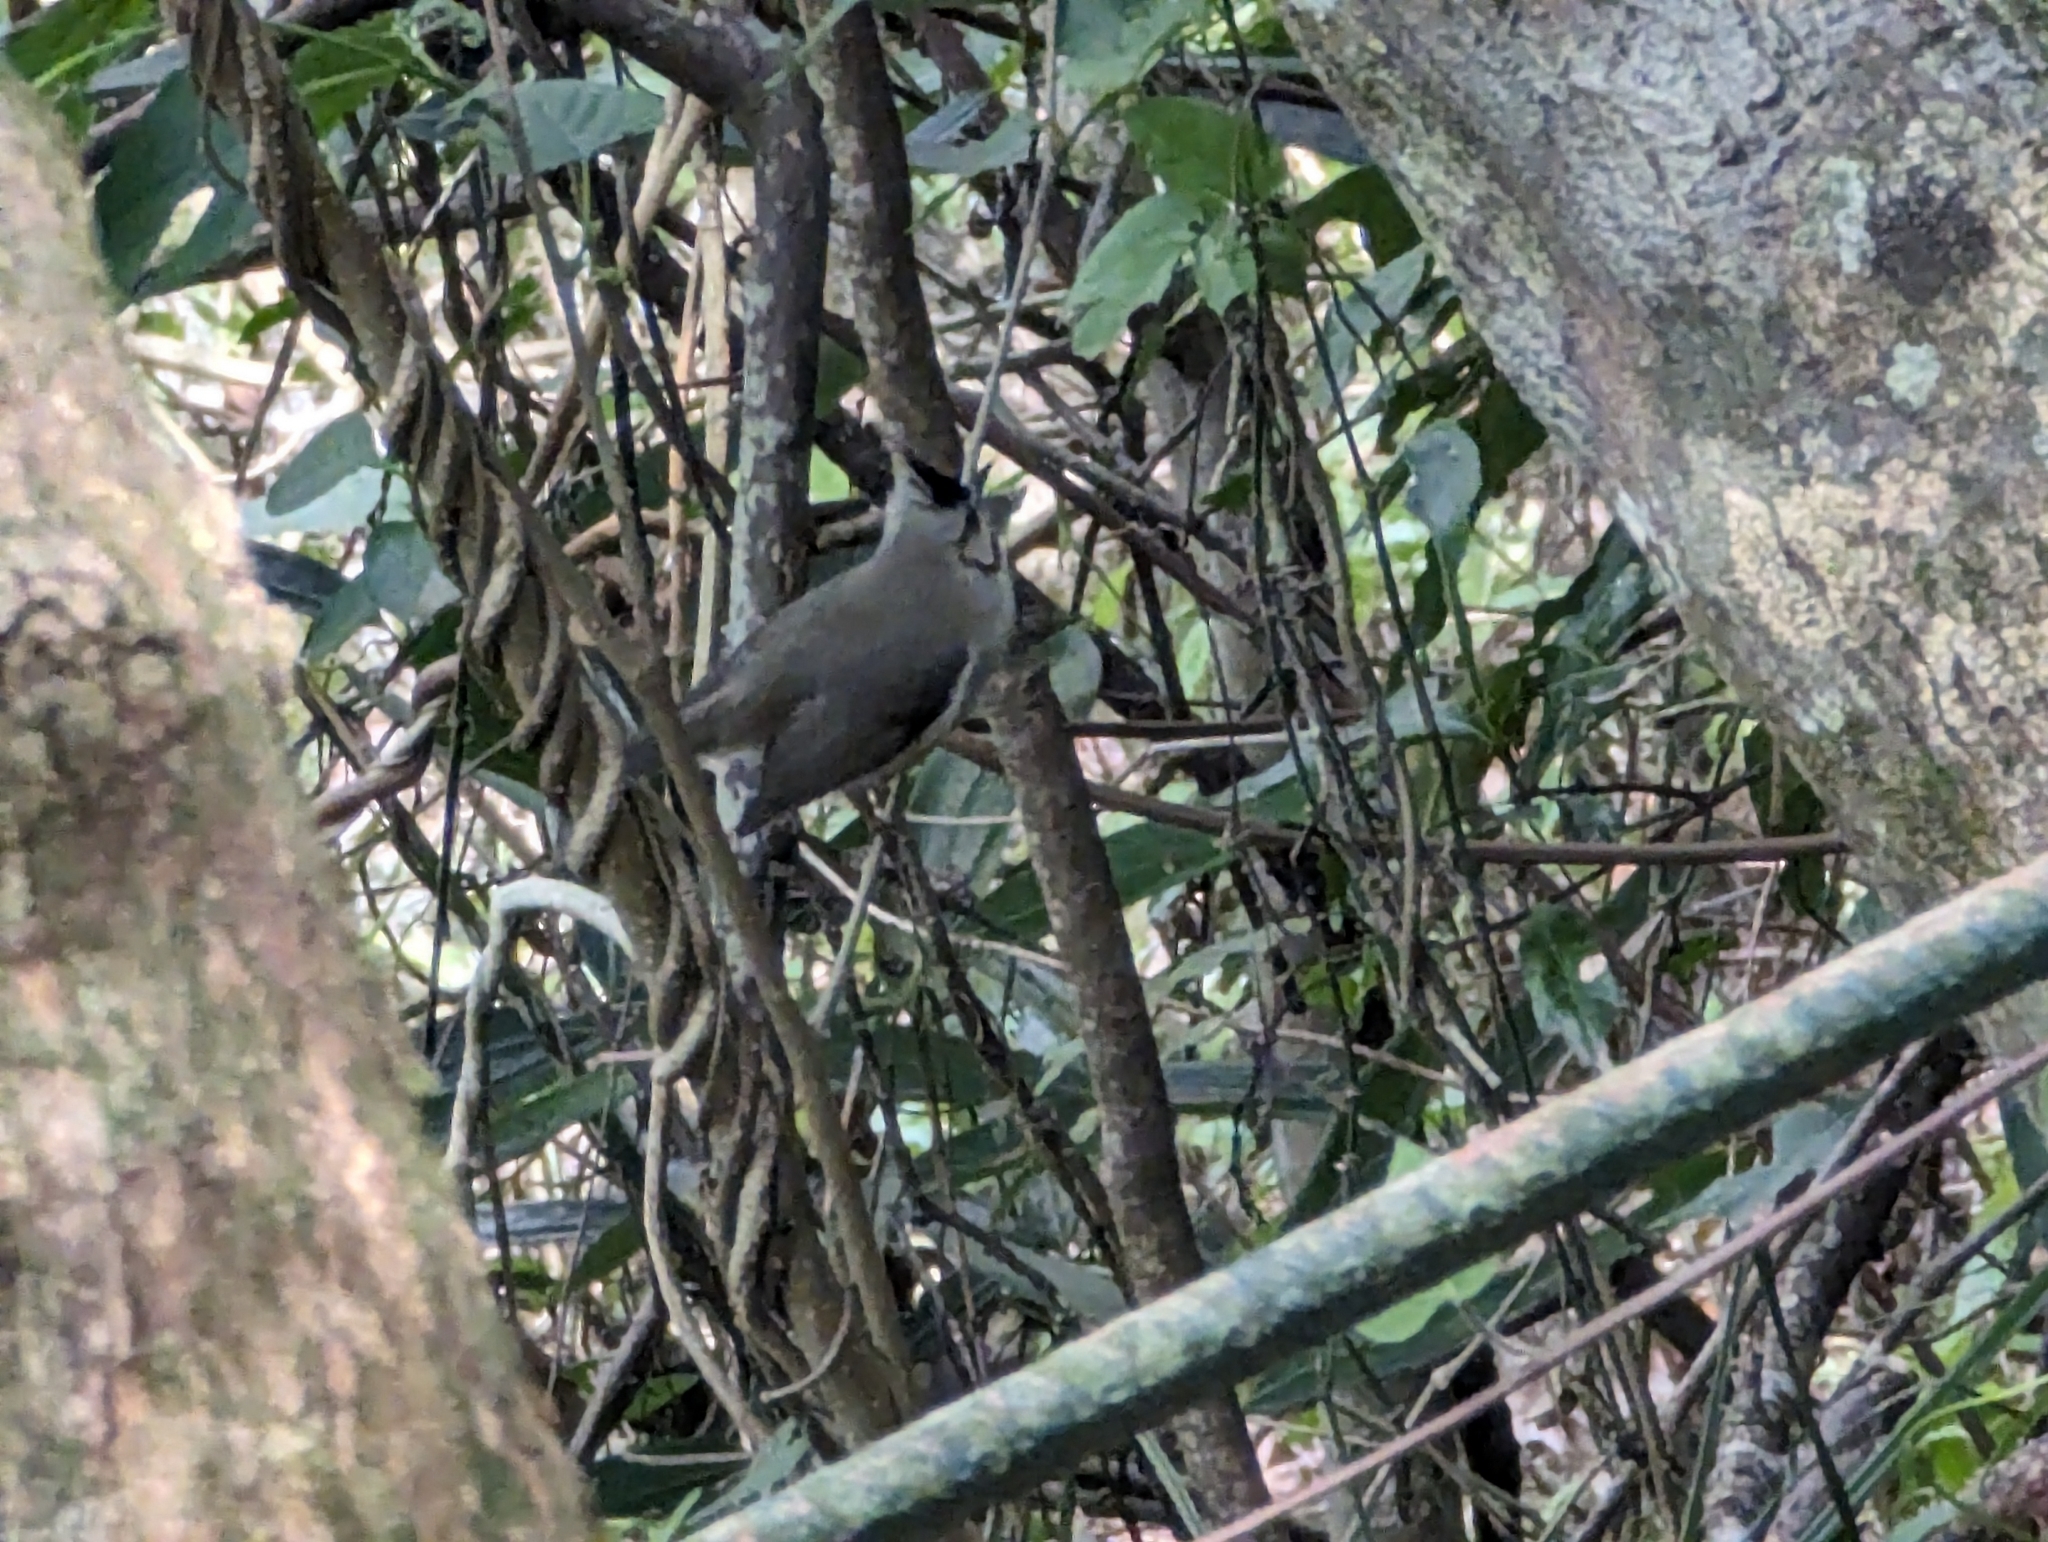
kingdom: Animalia
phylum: Chordata
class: Aves
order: Passeriformes
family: Zosteropidae
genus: Yuhina
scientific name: Yuhina brunneiceps
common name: Taiwan yuhina
